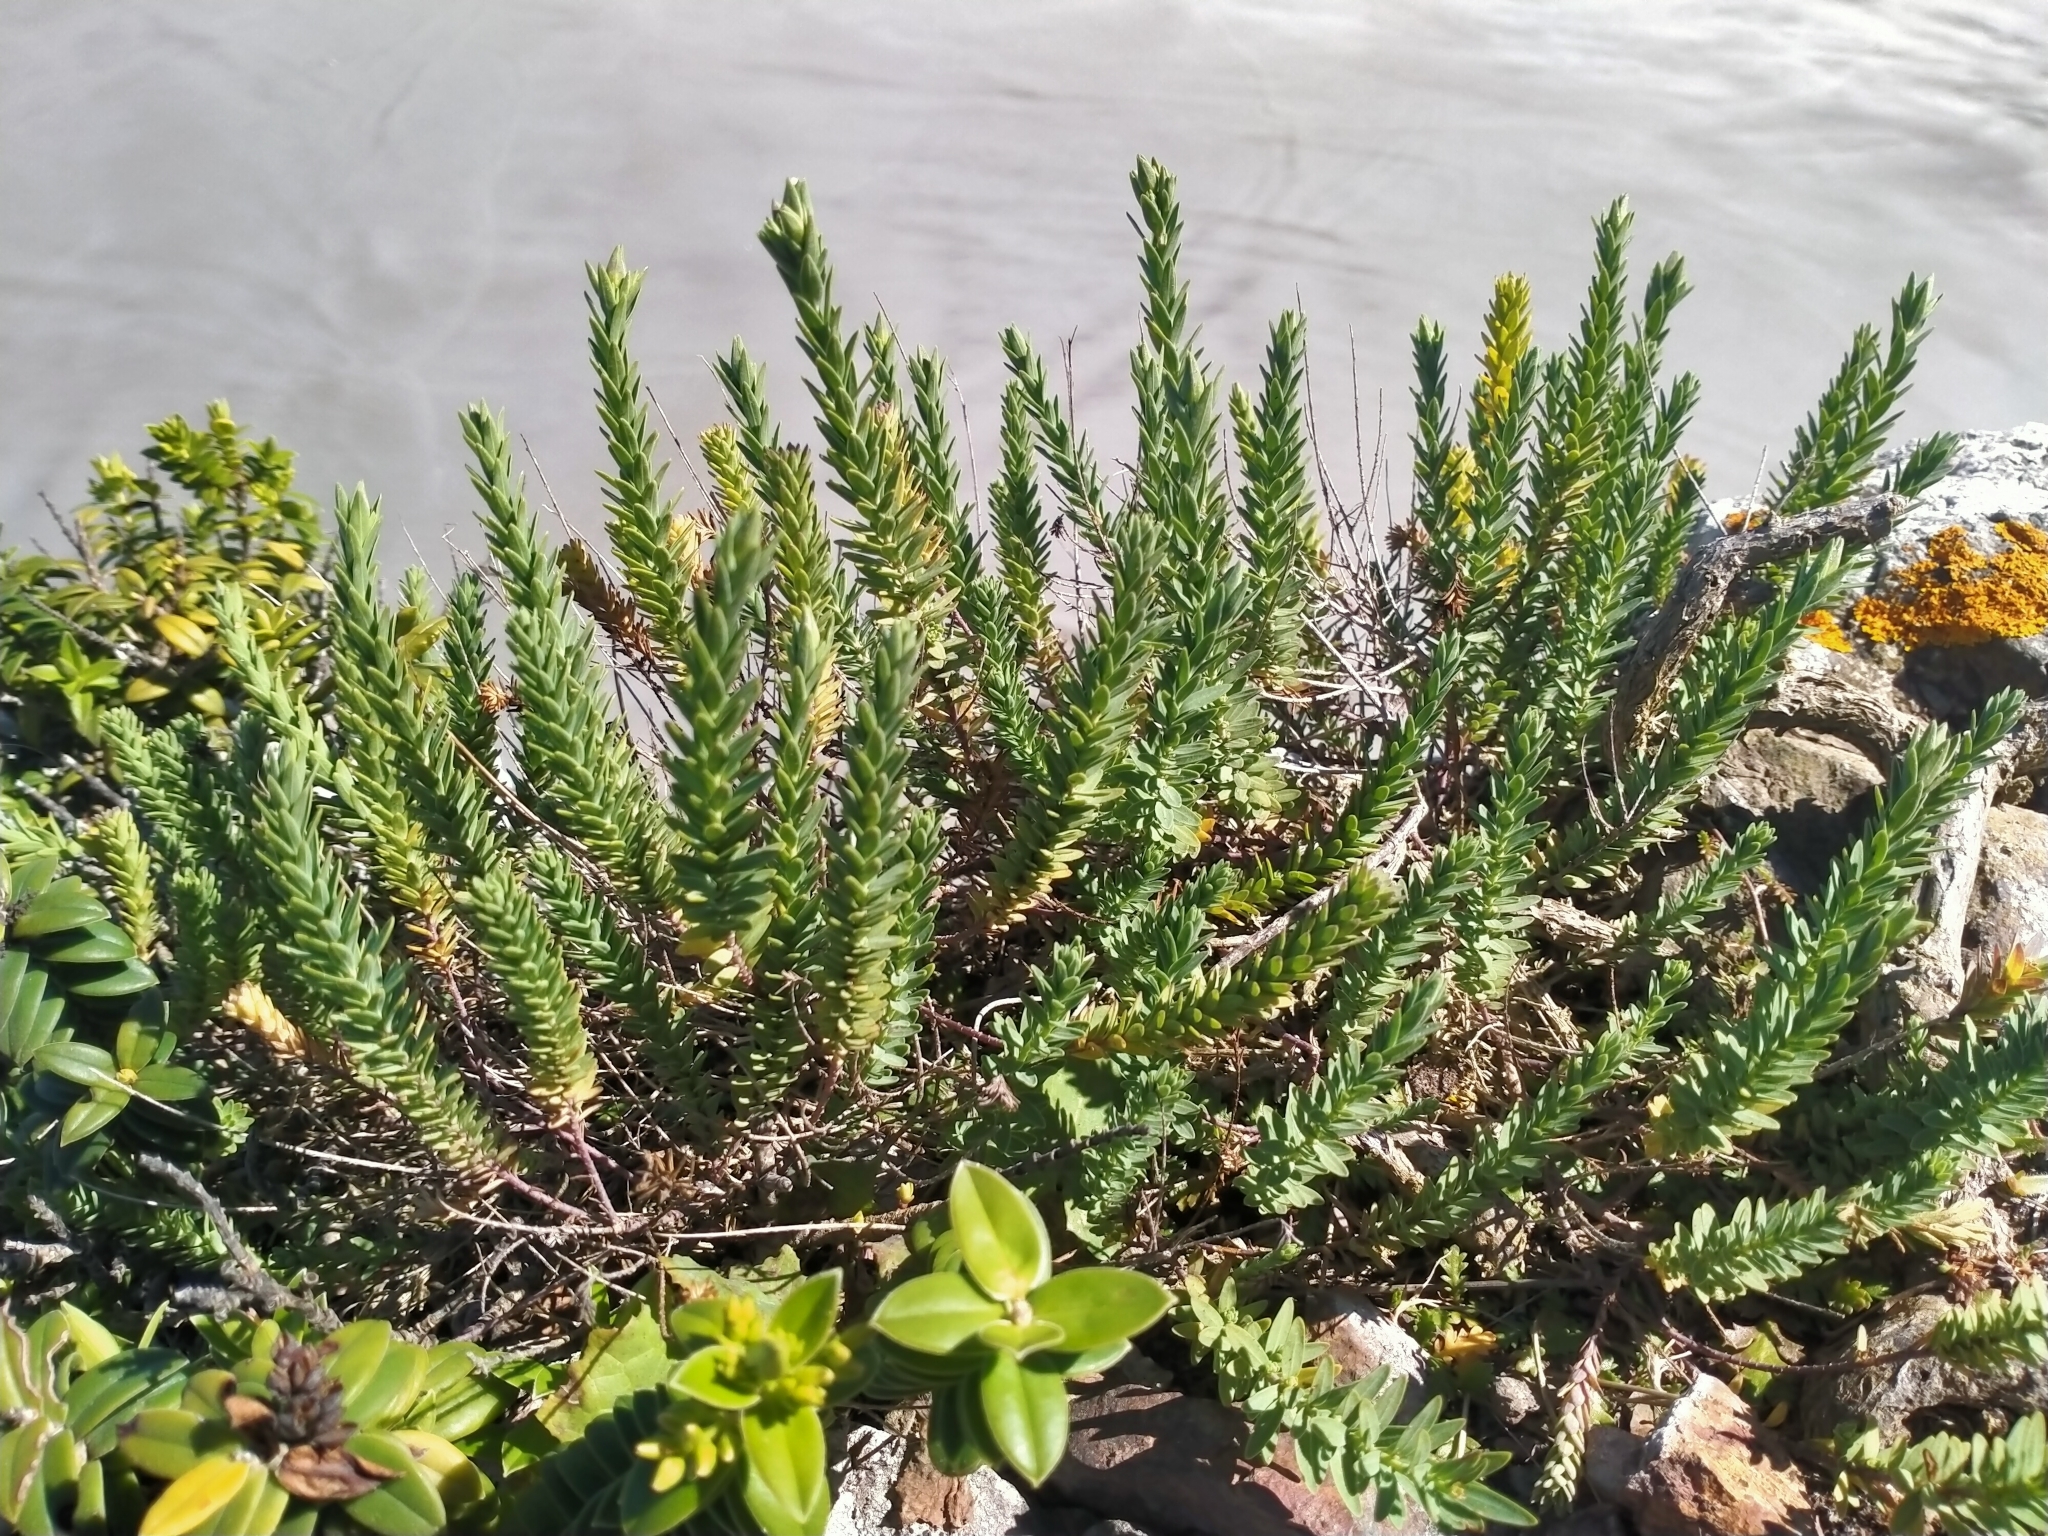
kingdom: Plantae
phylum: Tracheophyta
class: Magnoliopsida
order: Malpighiales
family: Linaceae
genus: Linum
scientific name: Linum monogynum
